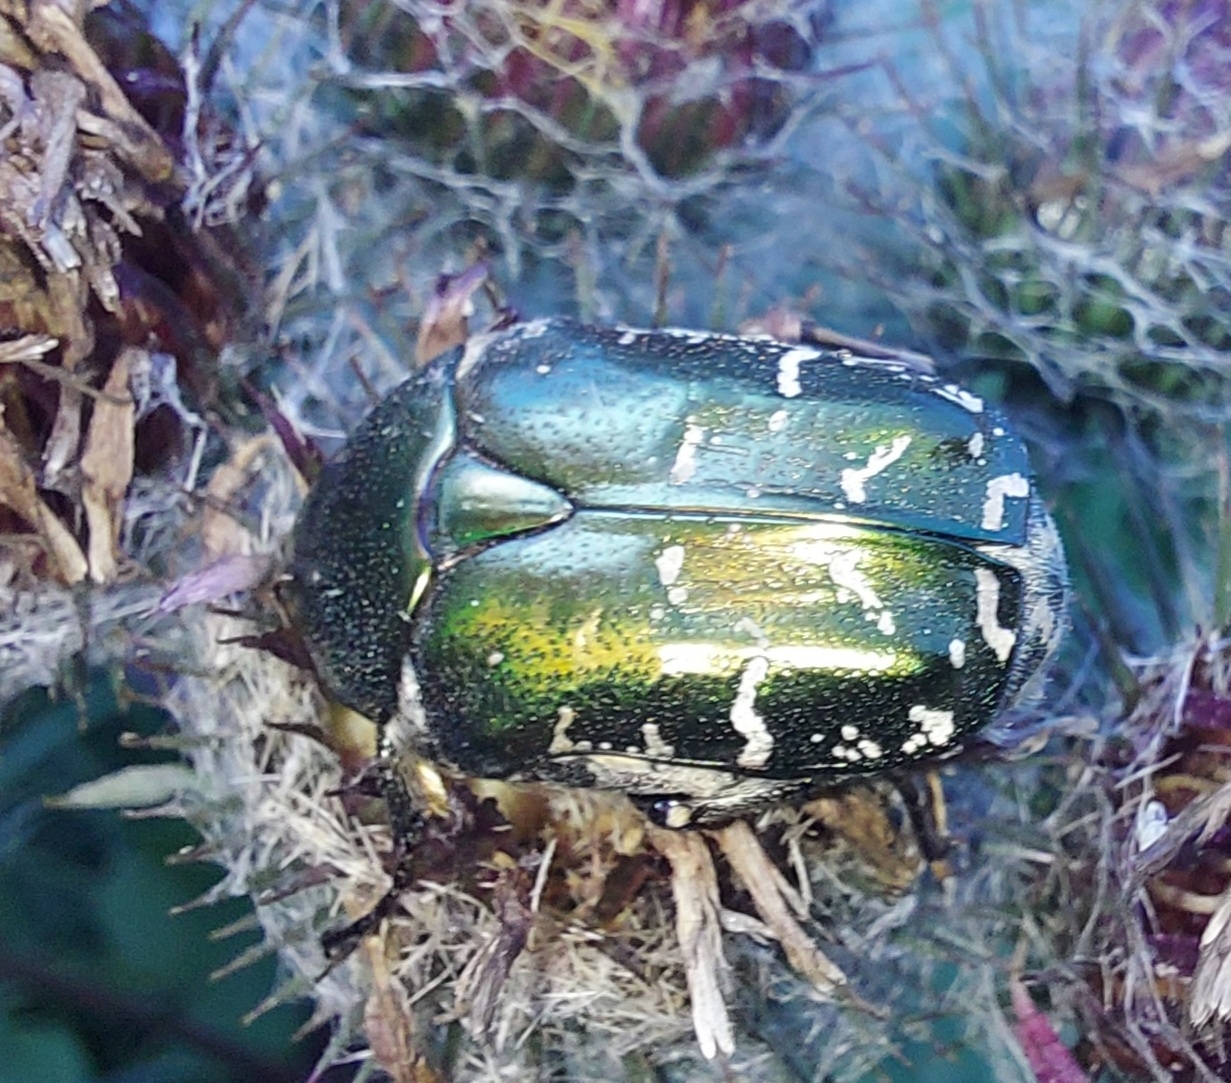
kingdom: Animalia
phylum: Arthropoda
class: Insecta
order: Coleoptera
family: Scarabaeidae
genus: Protaetia
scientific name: Protaetia cuprea
